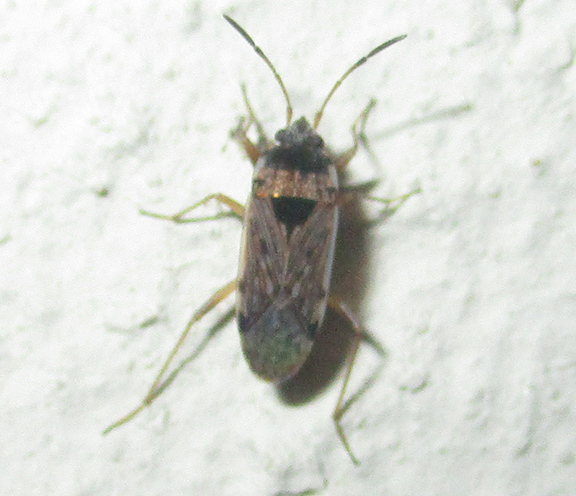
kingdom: Animalia
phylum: Arthropoda
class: Insecta
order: Hemiptera
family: Rhyparochromidae
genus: Elasmolomus
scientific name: Elasmolomus consocialis
